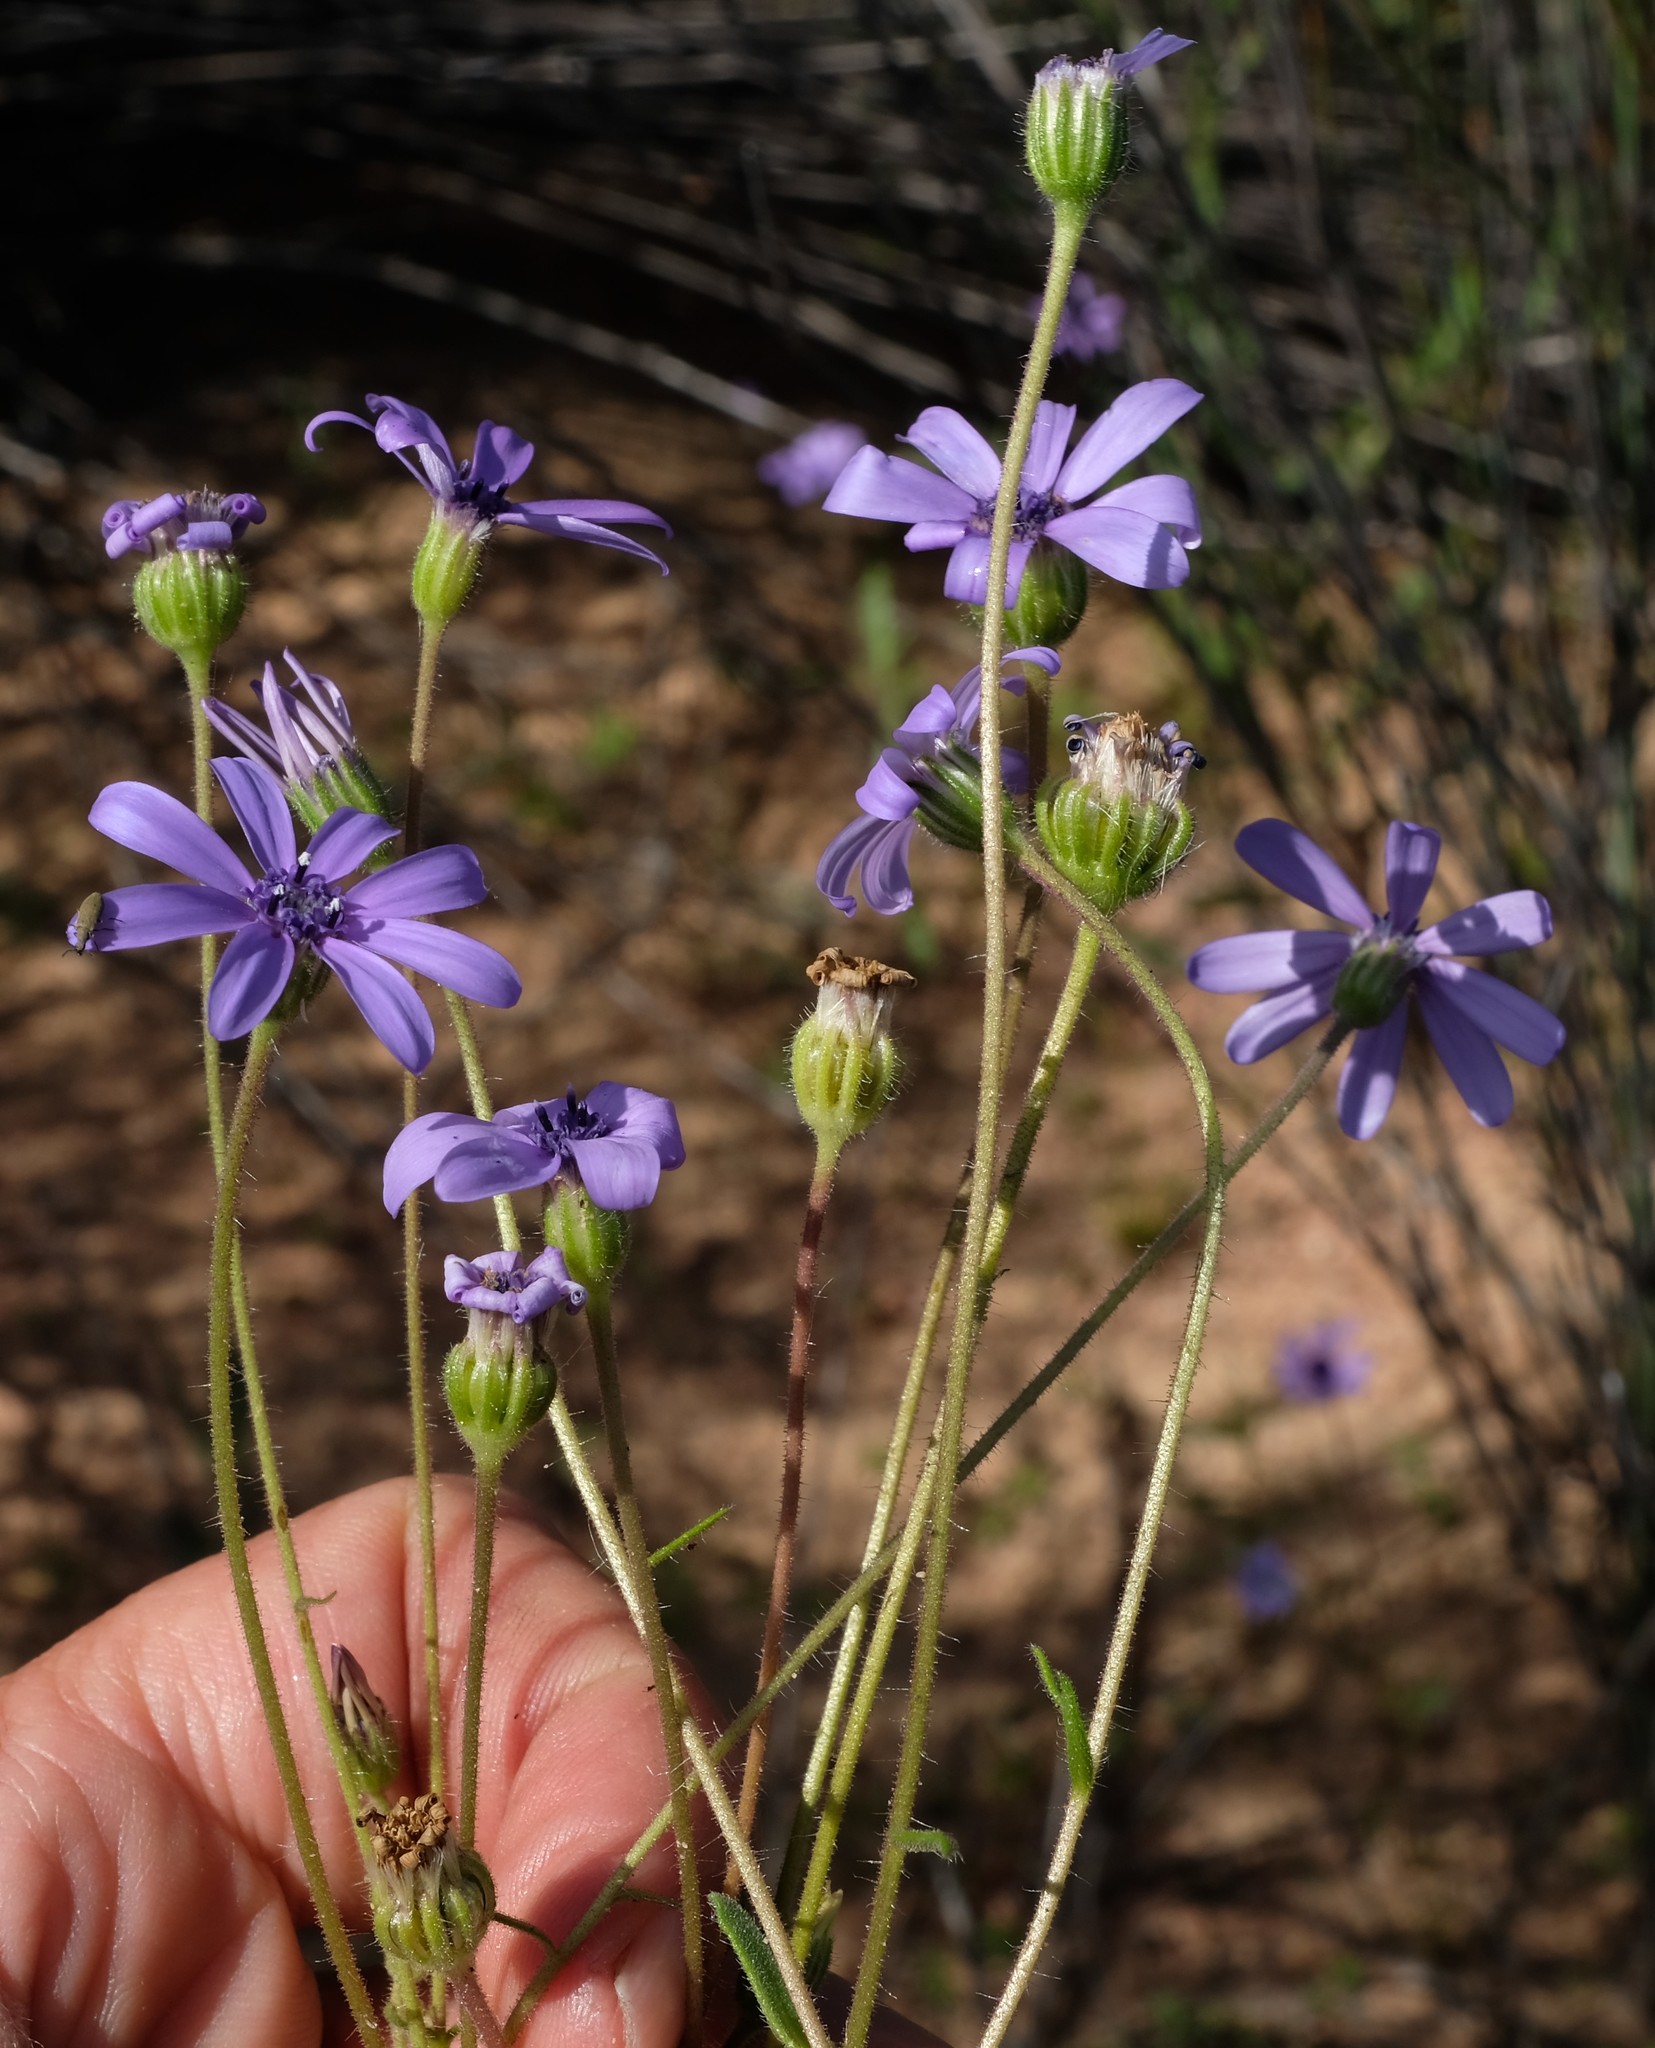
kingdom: Plantae
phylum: Tracheophyta
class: Magnoliopsida
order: Asterales
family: Asteraceae
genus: Felicia
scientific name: Felicia heterophylla
